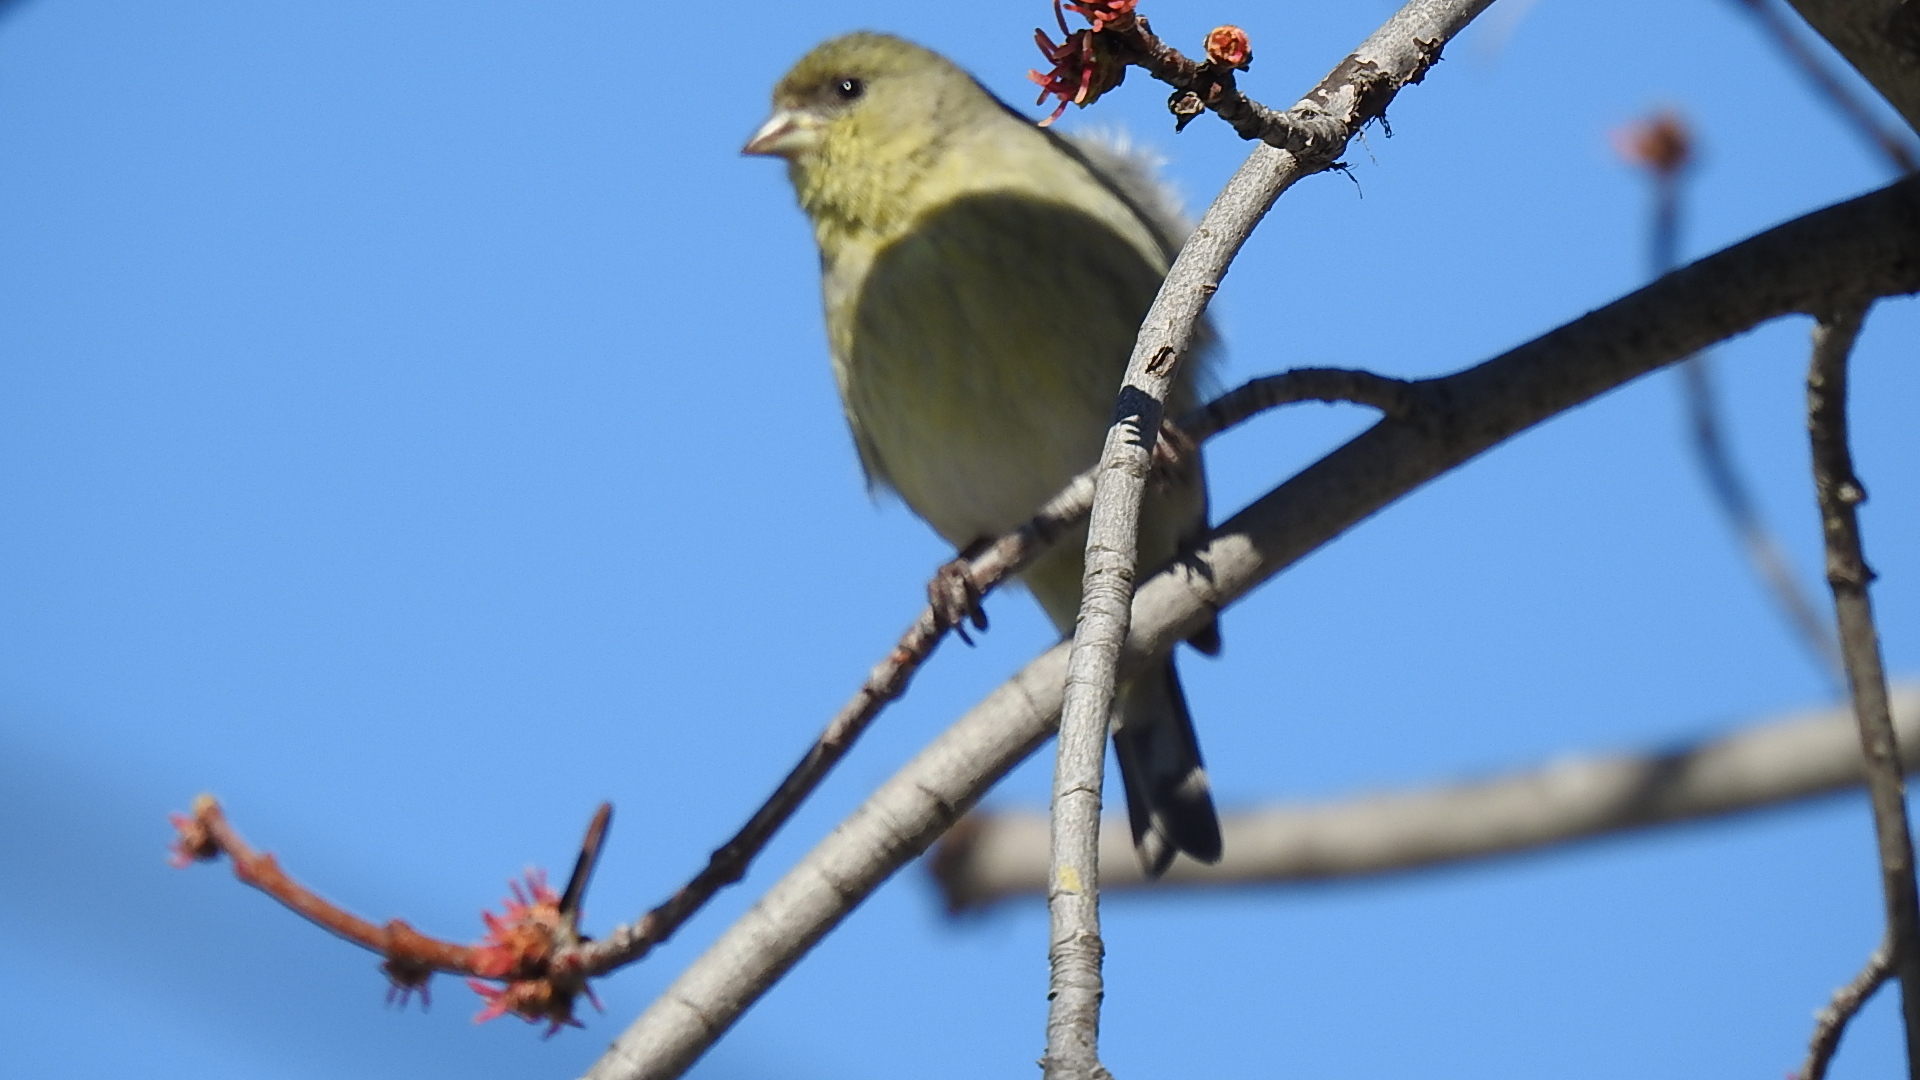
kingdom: Animalia
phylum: Chordata
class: Aves
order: Passeriformes
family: Fringillidae
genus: Spinus
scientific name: Spinus psaltria
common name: Lesser goldfinch
